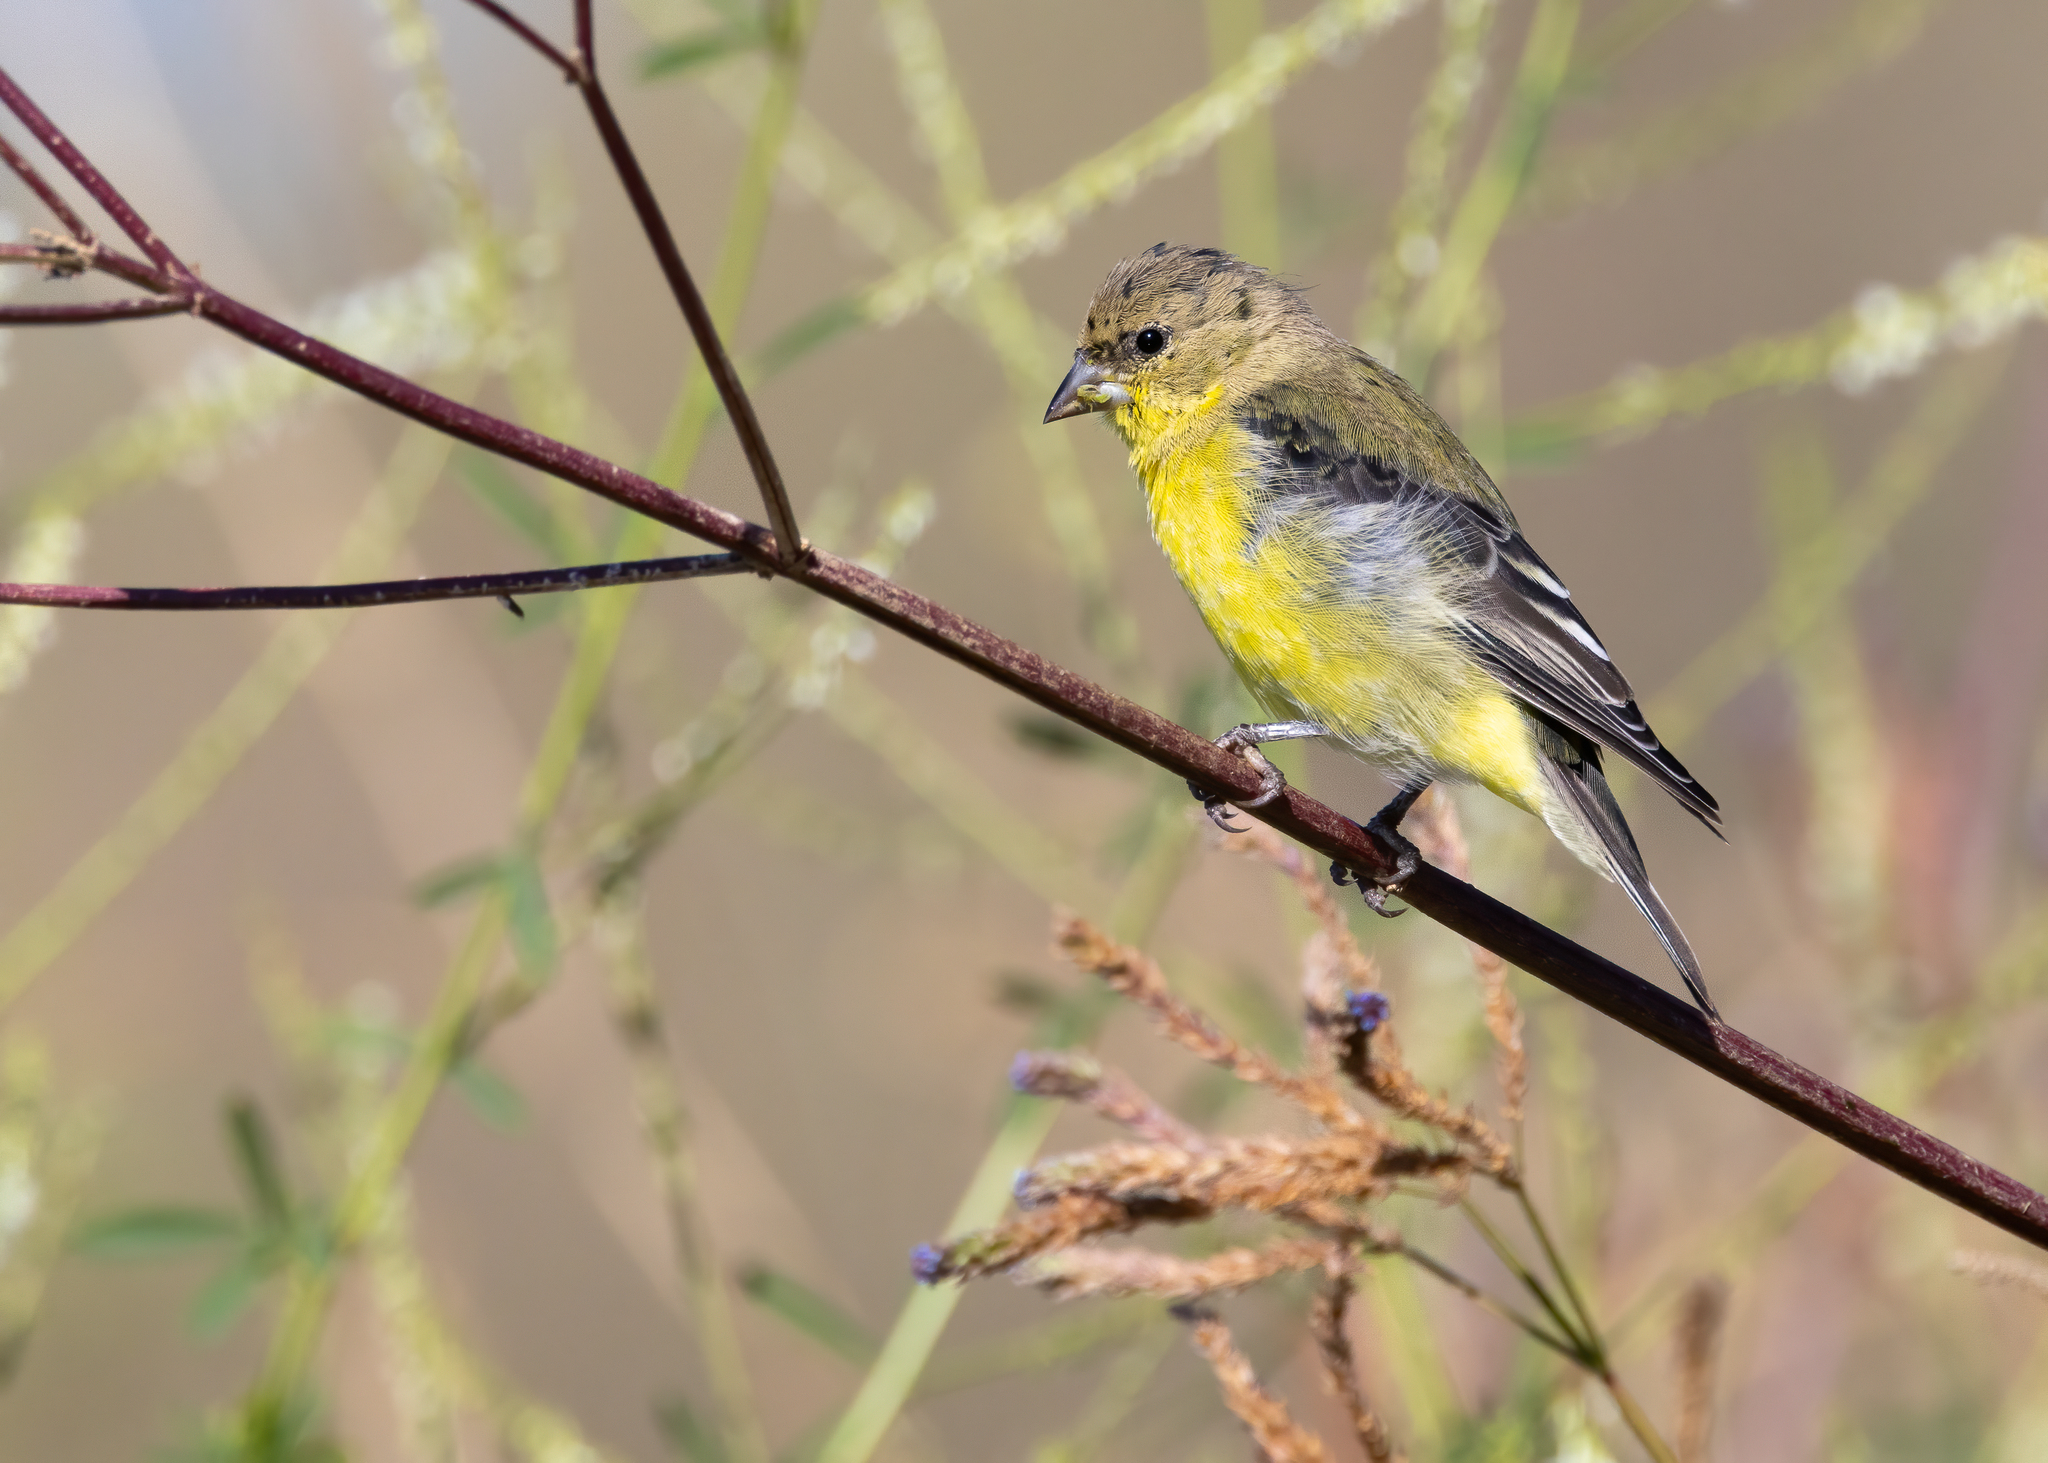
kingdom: Animalia
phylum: Chordata
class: Aves
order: Passeriformes
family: Fringillidae
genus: Spinus
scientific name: Spinus psaltria
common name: Lesser goldfinch
